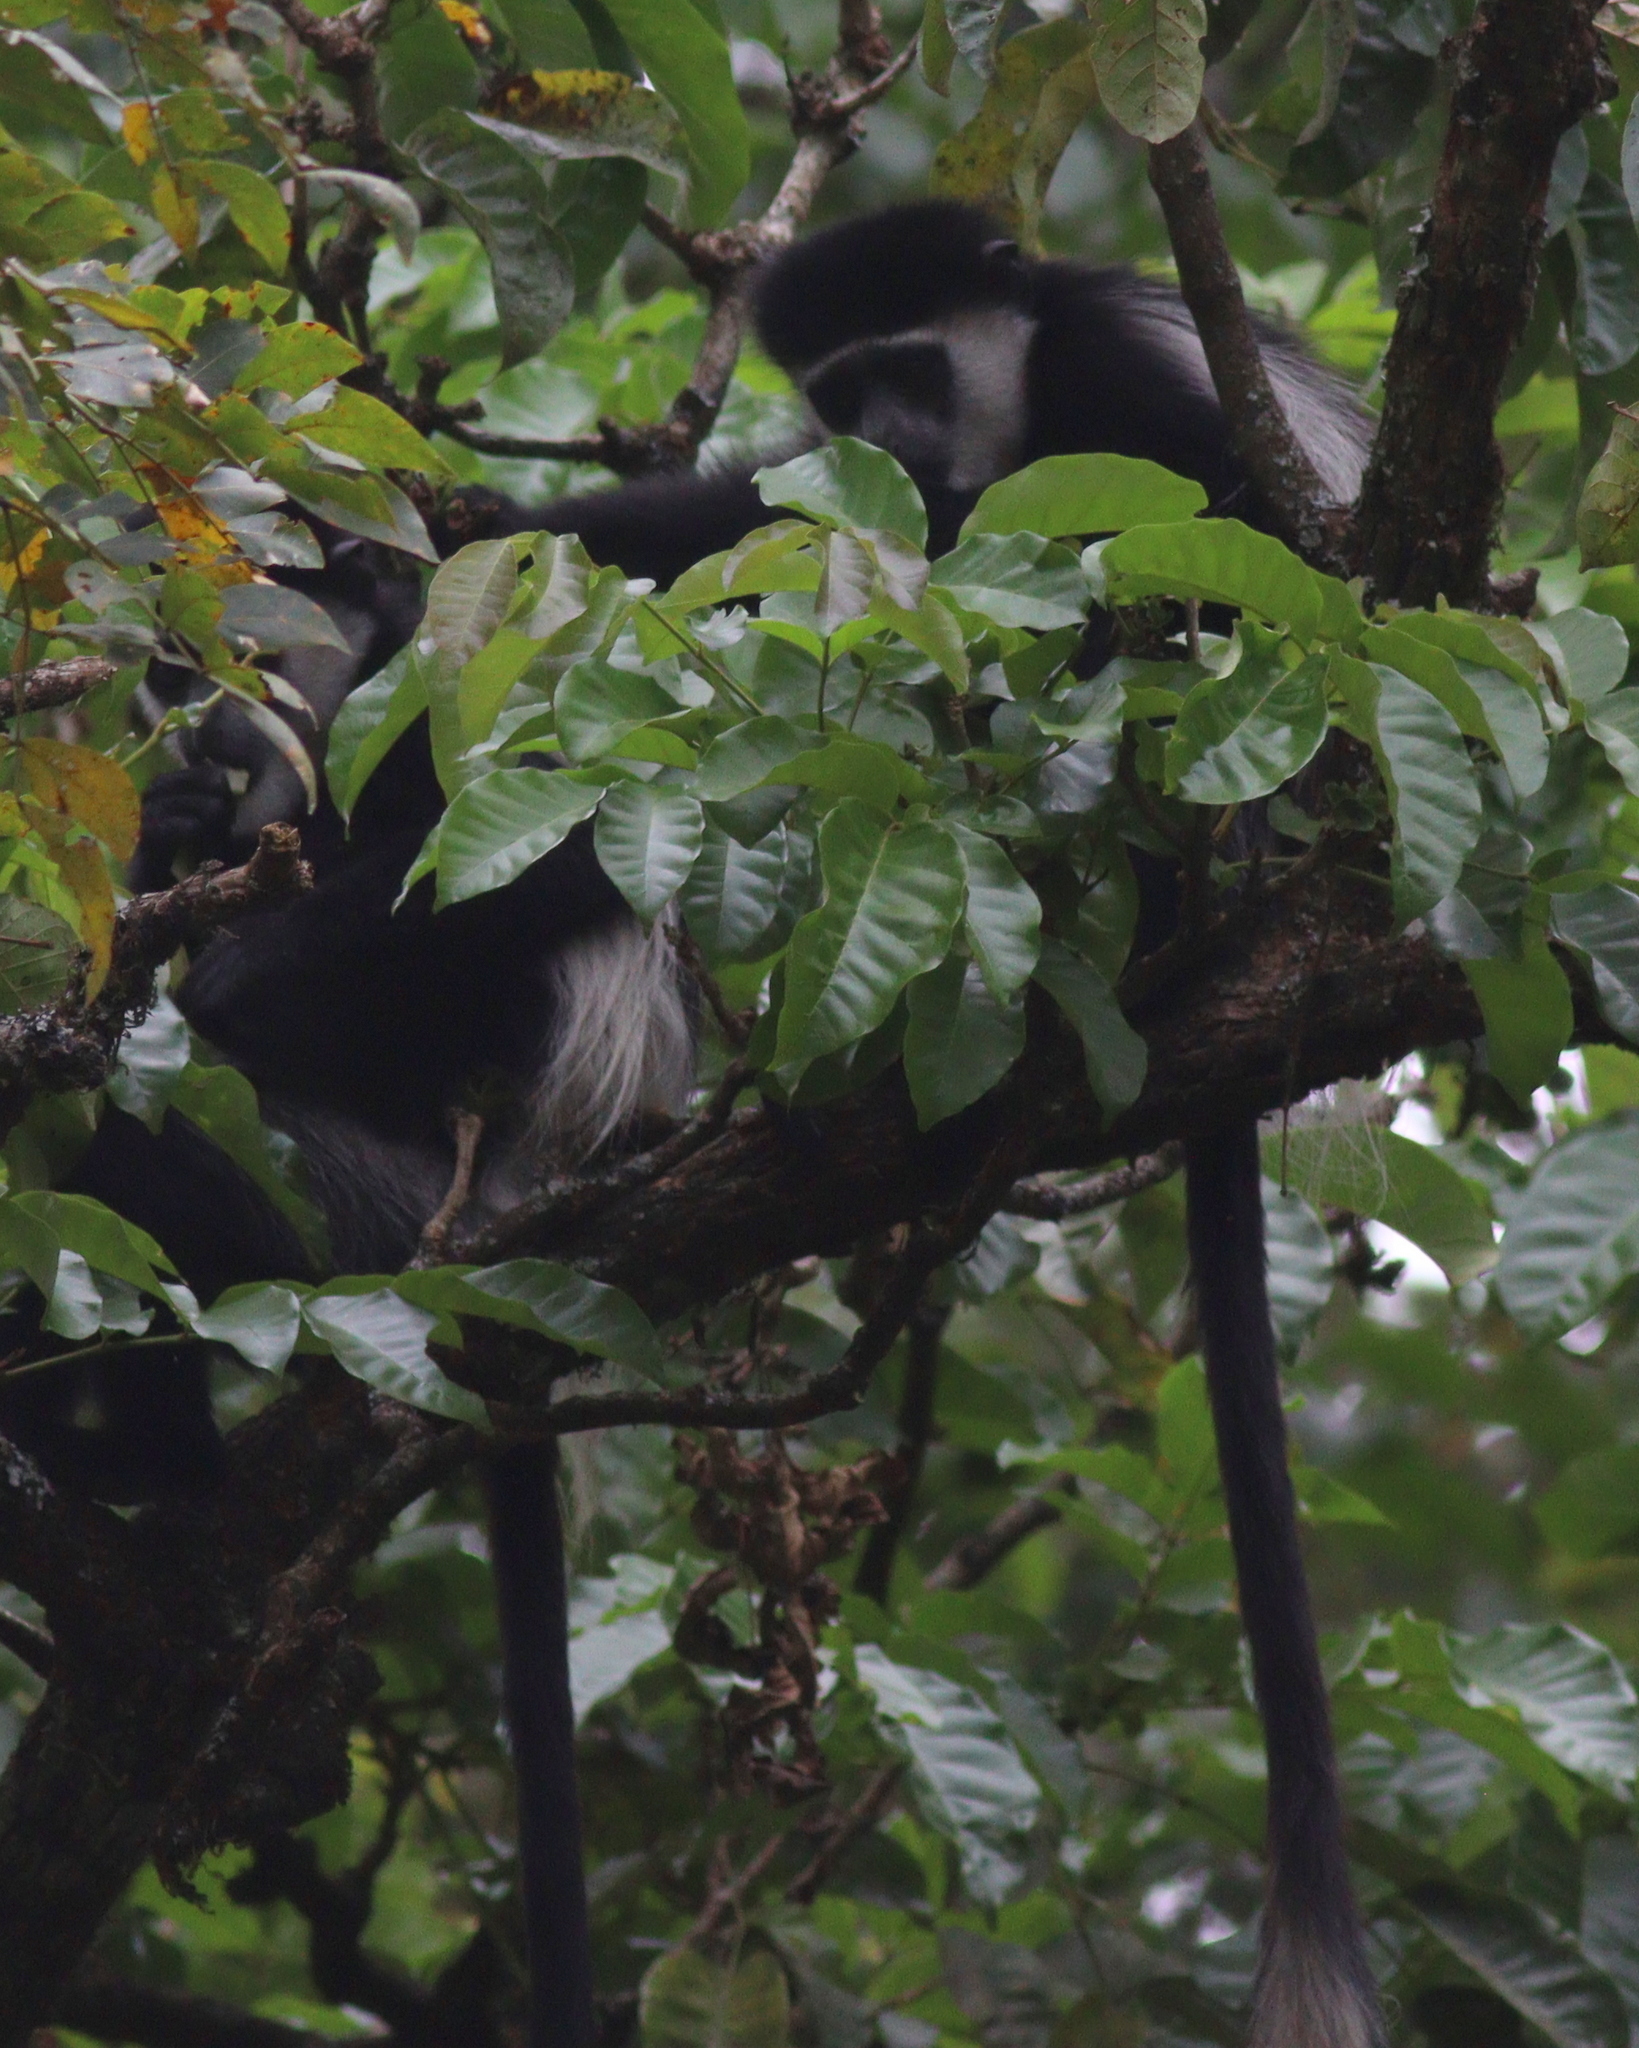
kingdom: Animalia
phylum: Chordata
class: Mammalia
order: Primates
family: Cercopithecidae
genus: Colobus
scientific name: Colobus guereza
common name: Mantled guereza
